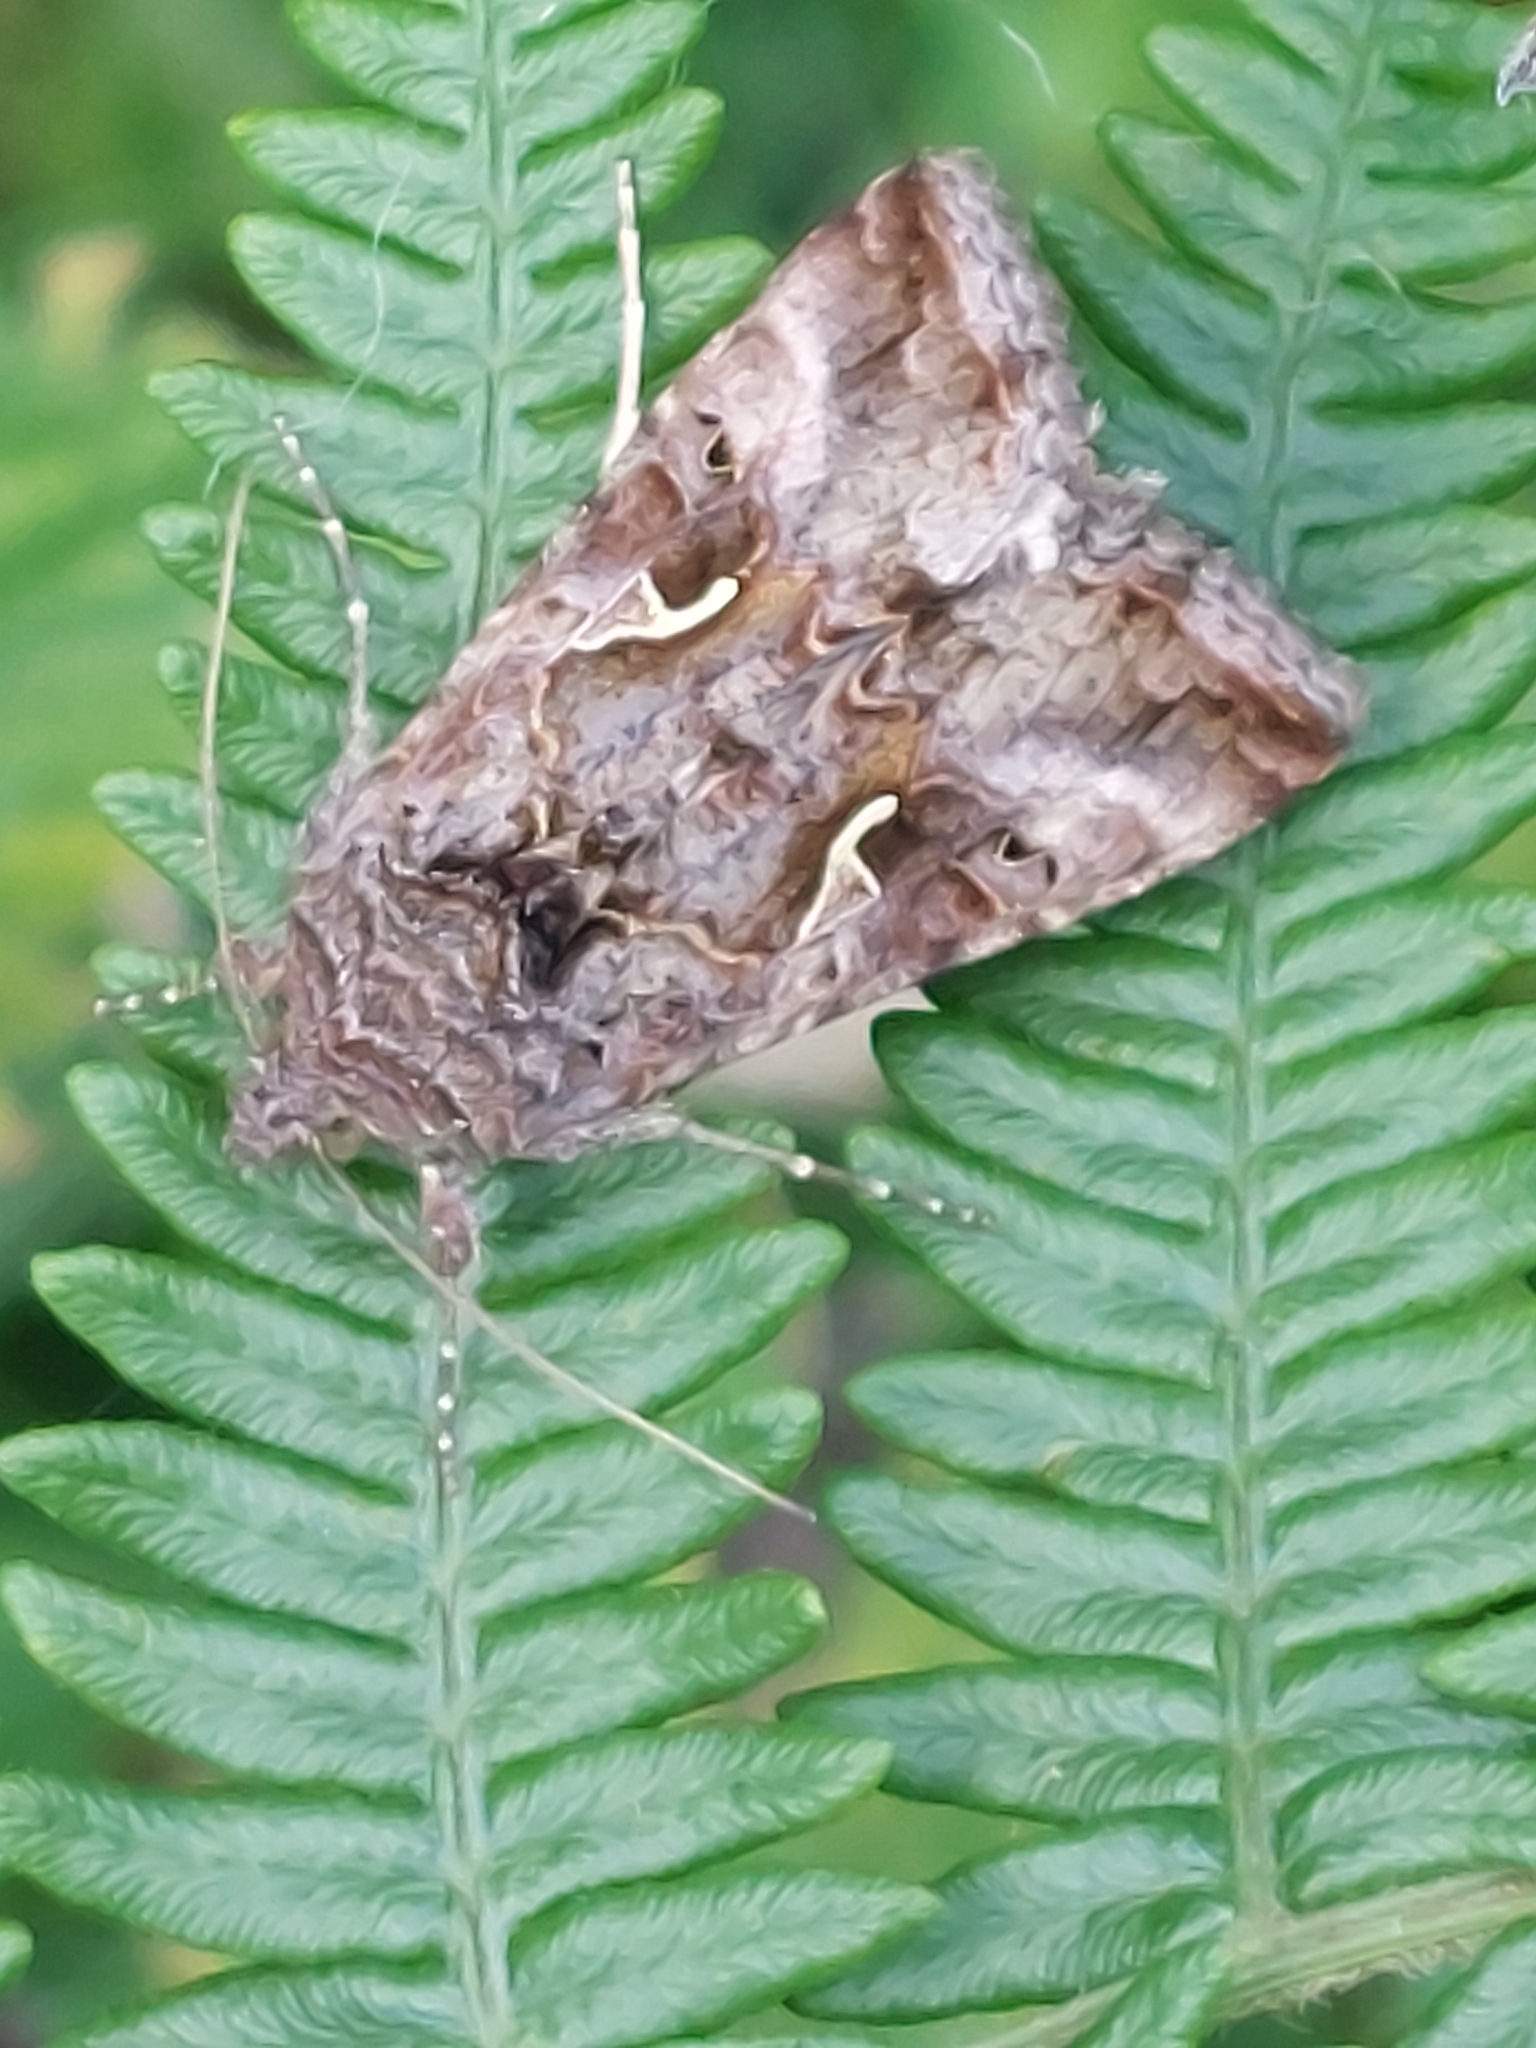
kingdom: Animalia
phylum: Arthropoda
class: Insecta
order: Lepidoptera
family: Noctuidae
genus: Autographa
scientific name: Autographa gamma
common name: Silver y
